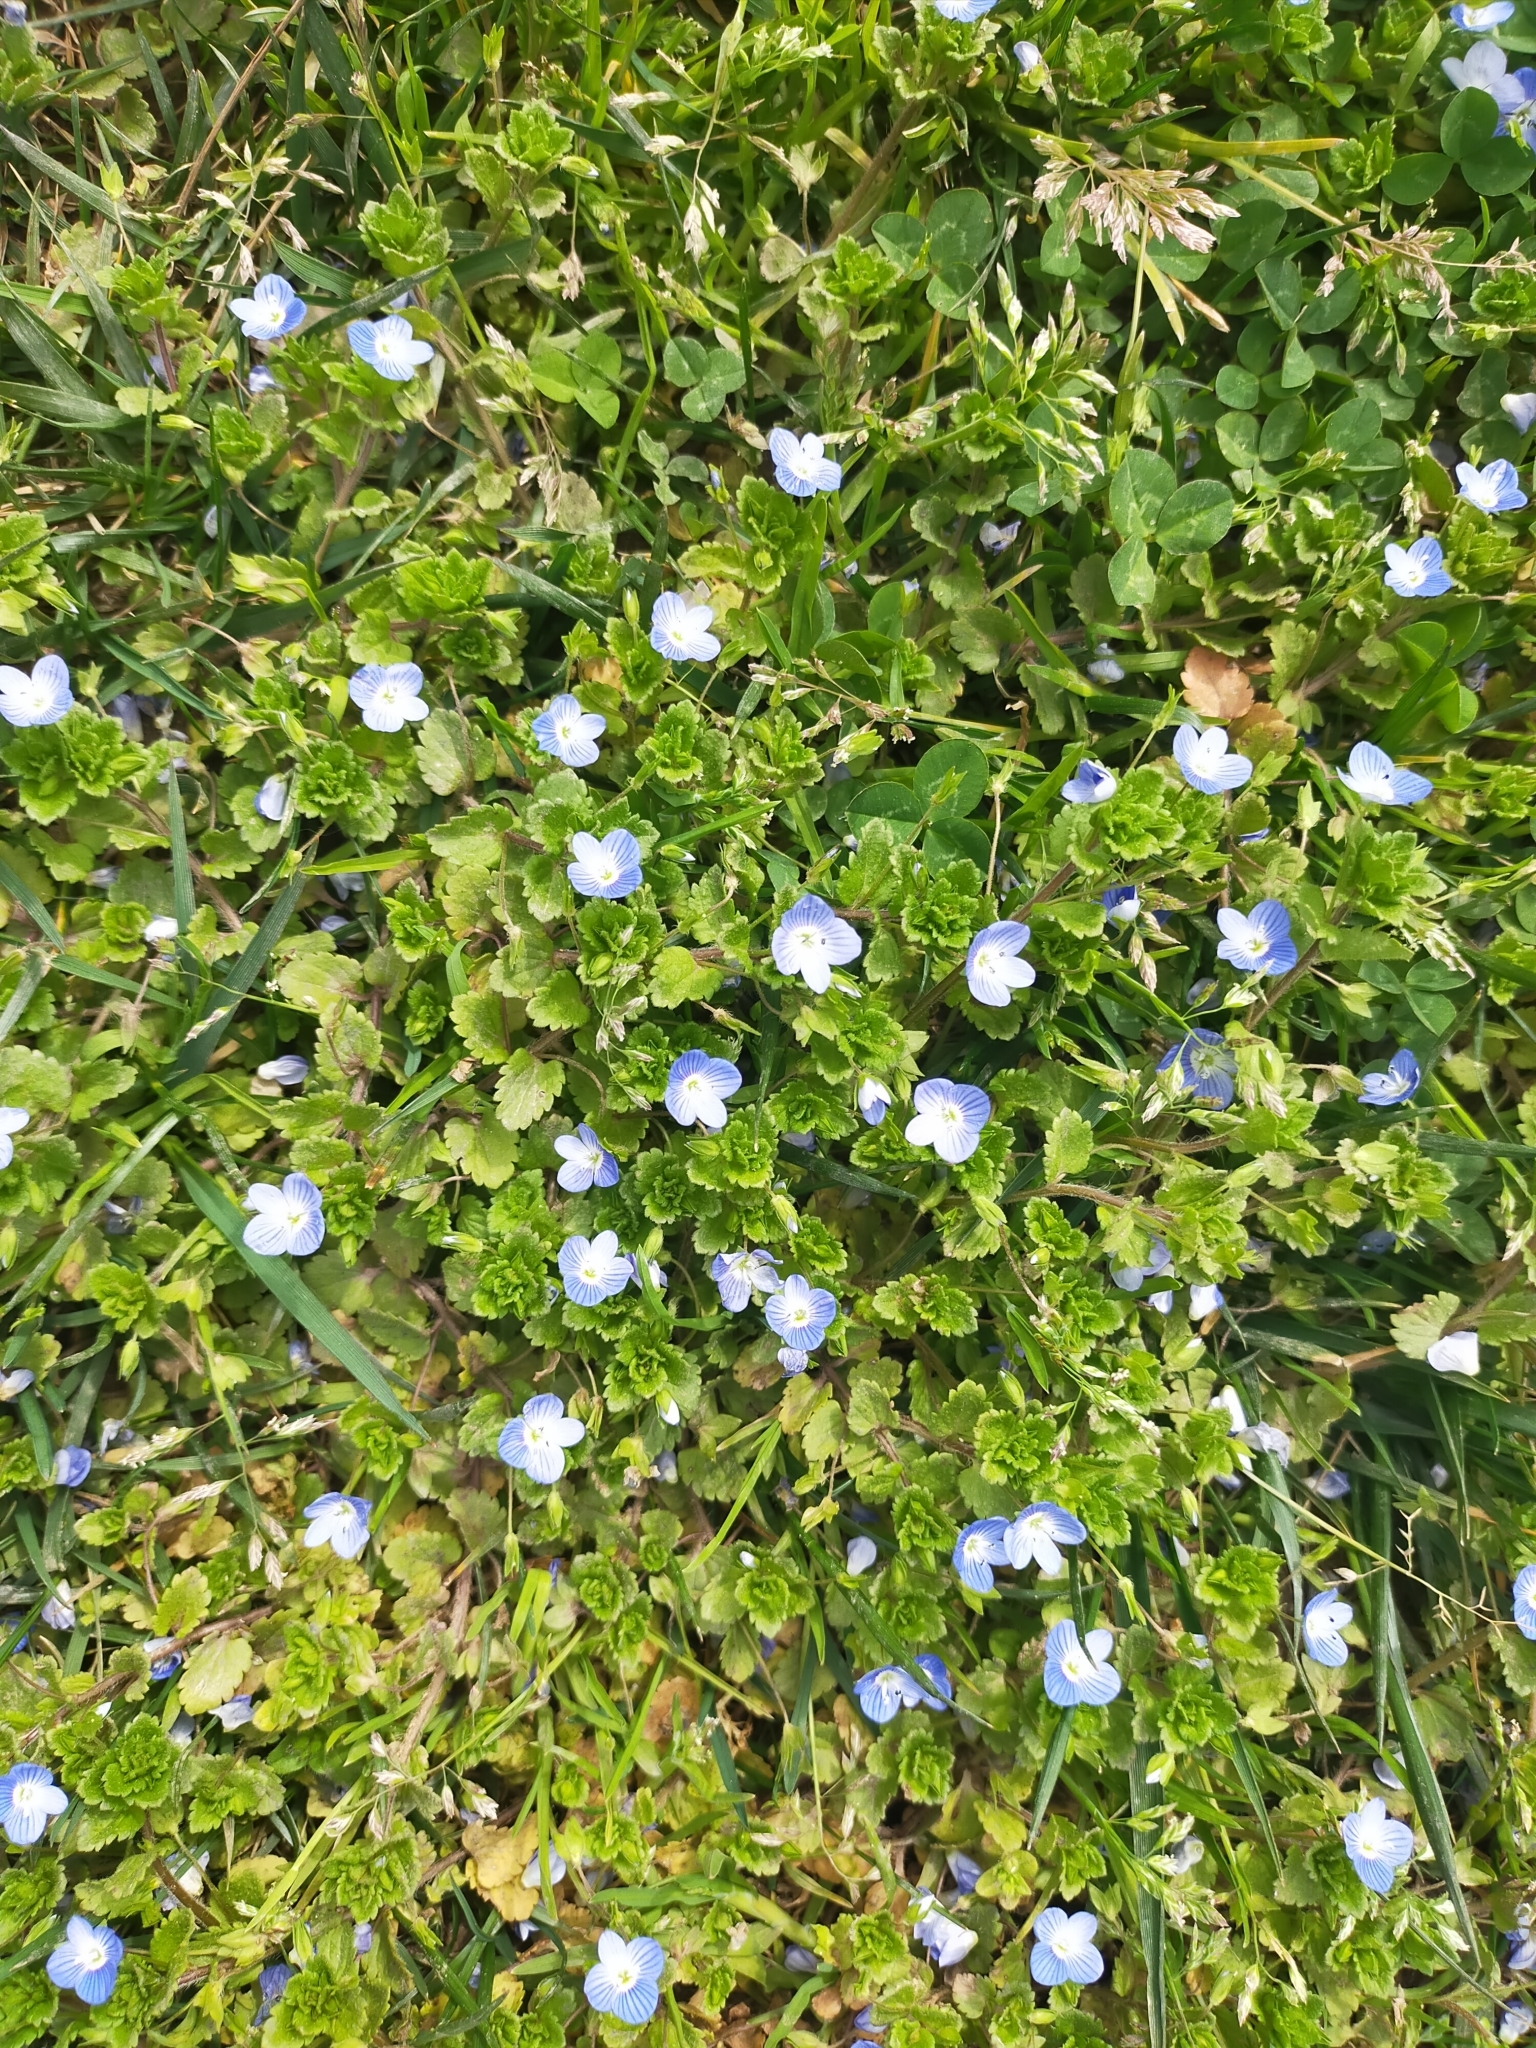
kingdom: Plantae
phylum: Tracheophyta
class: Magnoliopsida
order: Lamiales
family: Plantaginaceae
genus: Veronica
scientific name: Veronica persica
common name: Common field-speedwell
